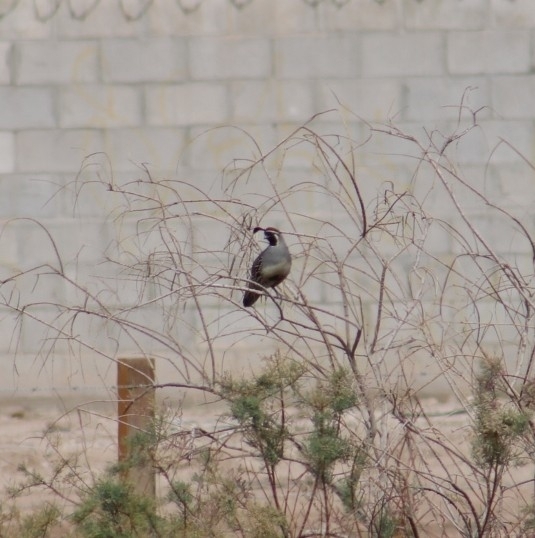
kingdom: Animalia
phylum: Chordata
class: Aves
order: Galliformes
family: Odontophoridae
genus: Callipepla
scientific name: Callipepla gambelii
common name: Gambel's quail
